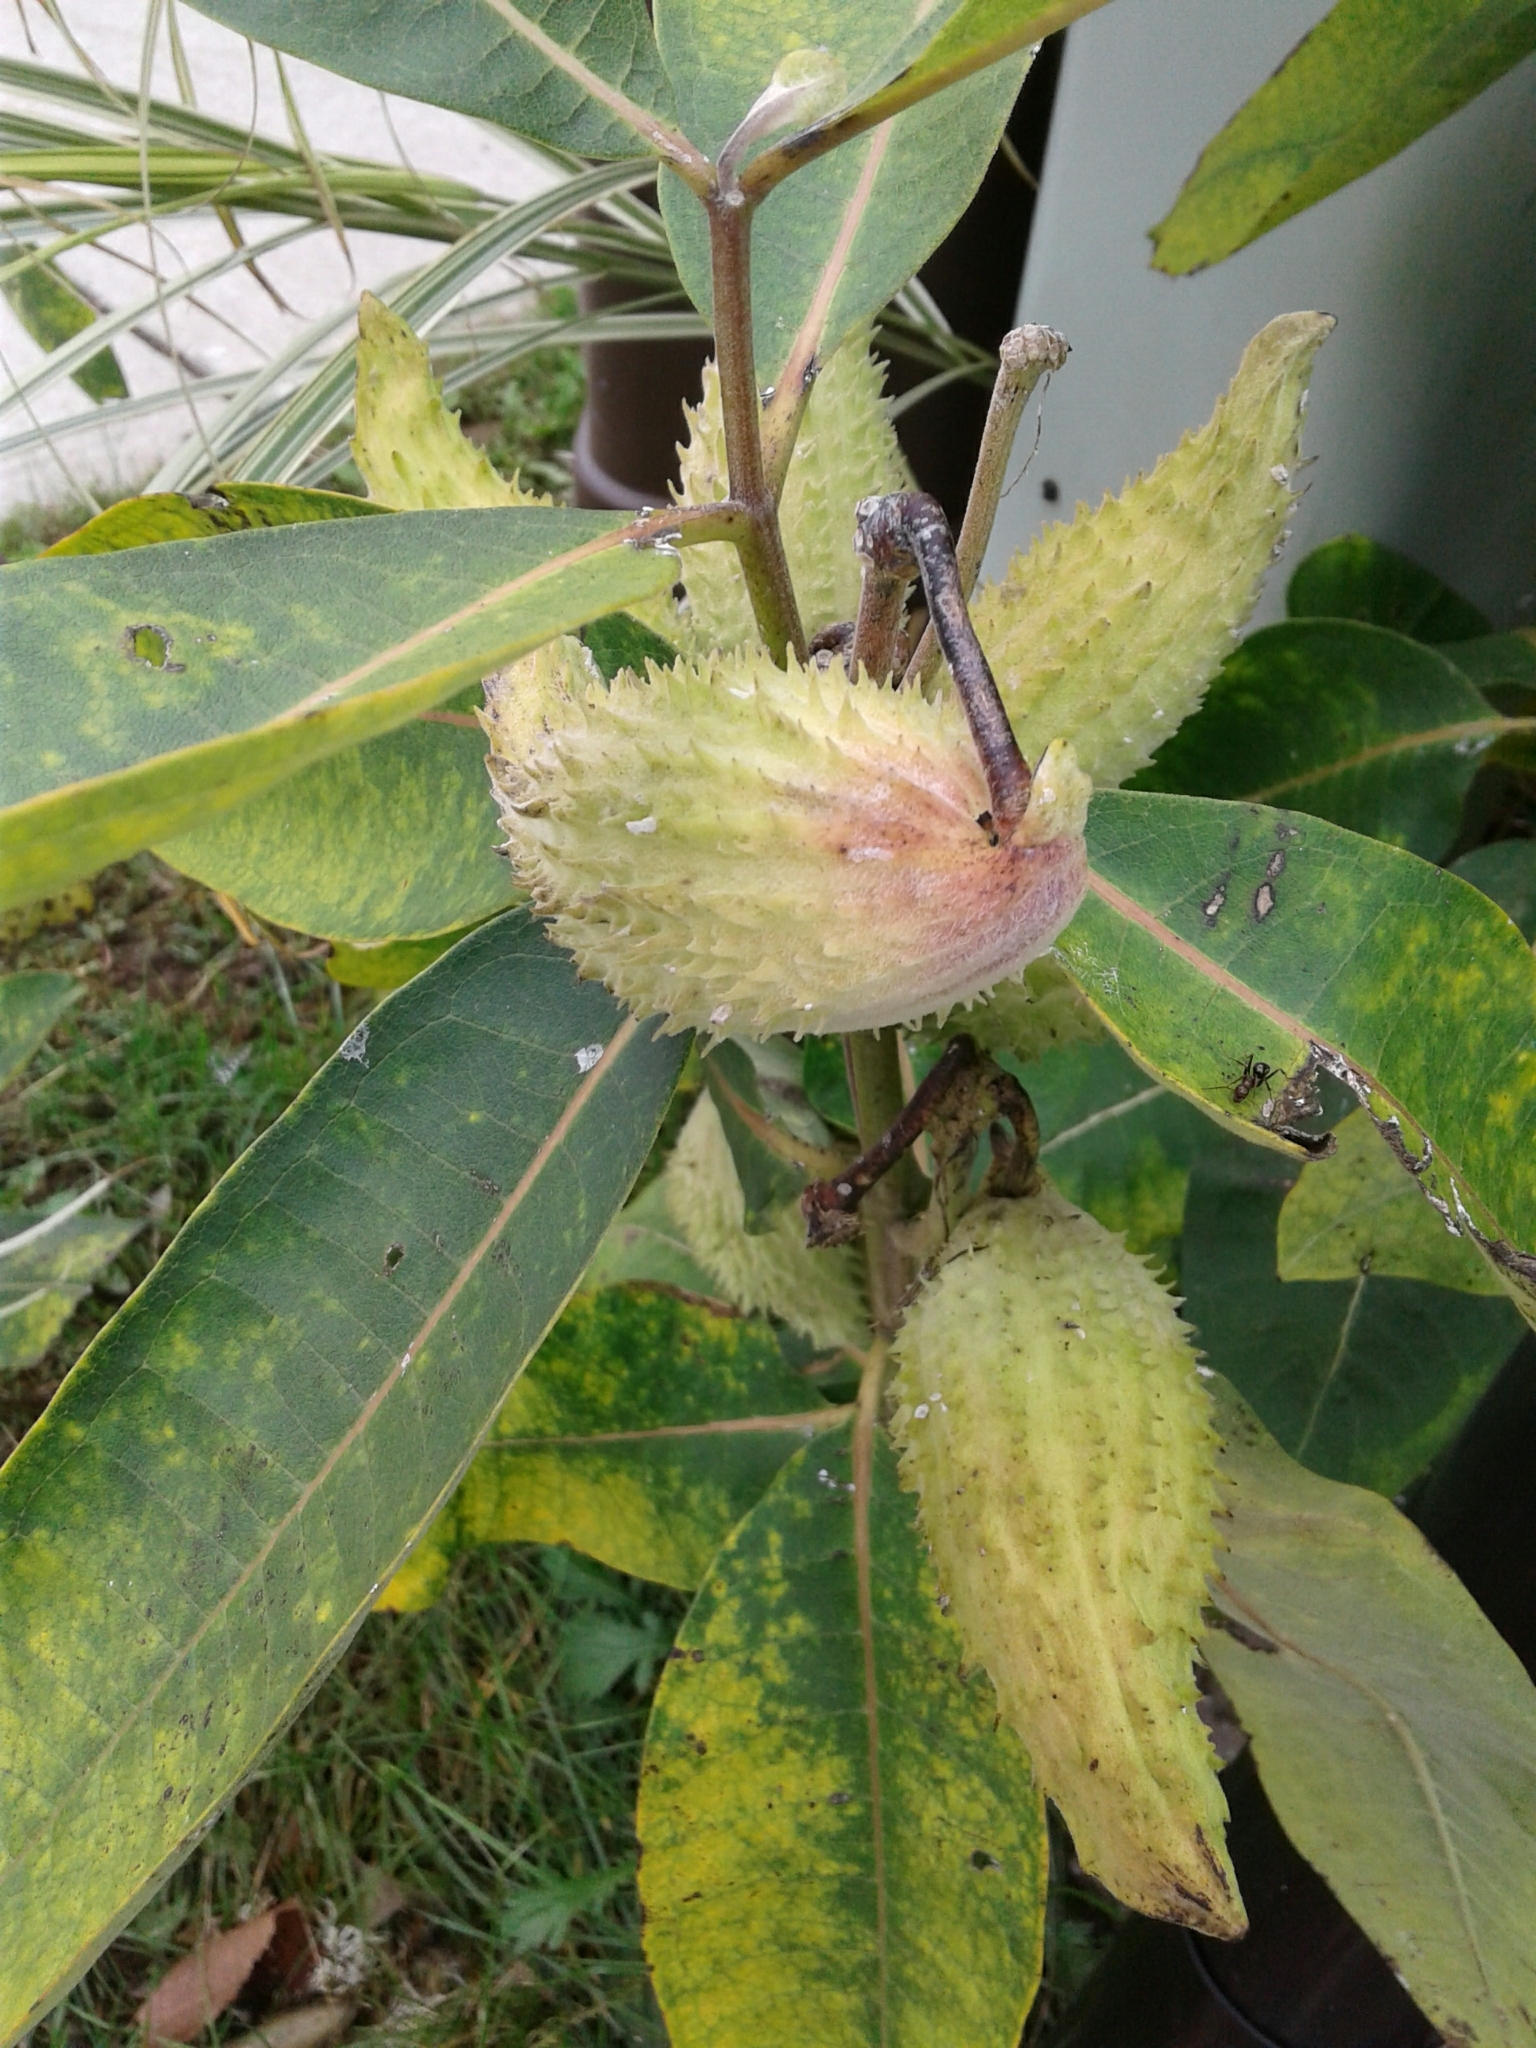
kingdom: Plantae
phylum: Tracheophyta
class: Magnoliopsida
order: Gentianales
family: Apocynaceae
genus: Asclepias
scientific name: Asclepias syriaca
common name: Common milkweed
